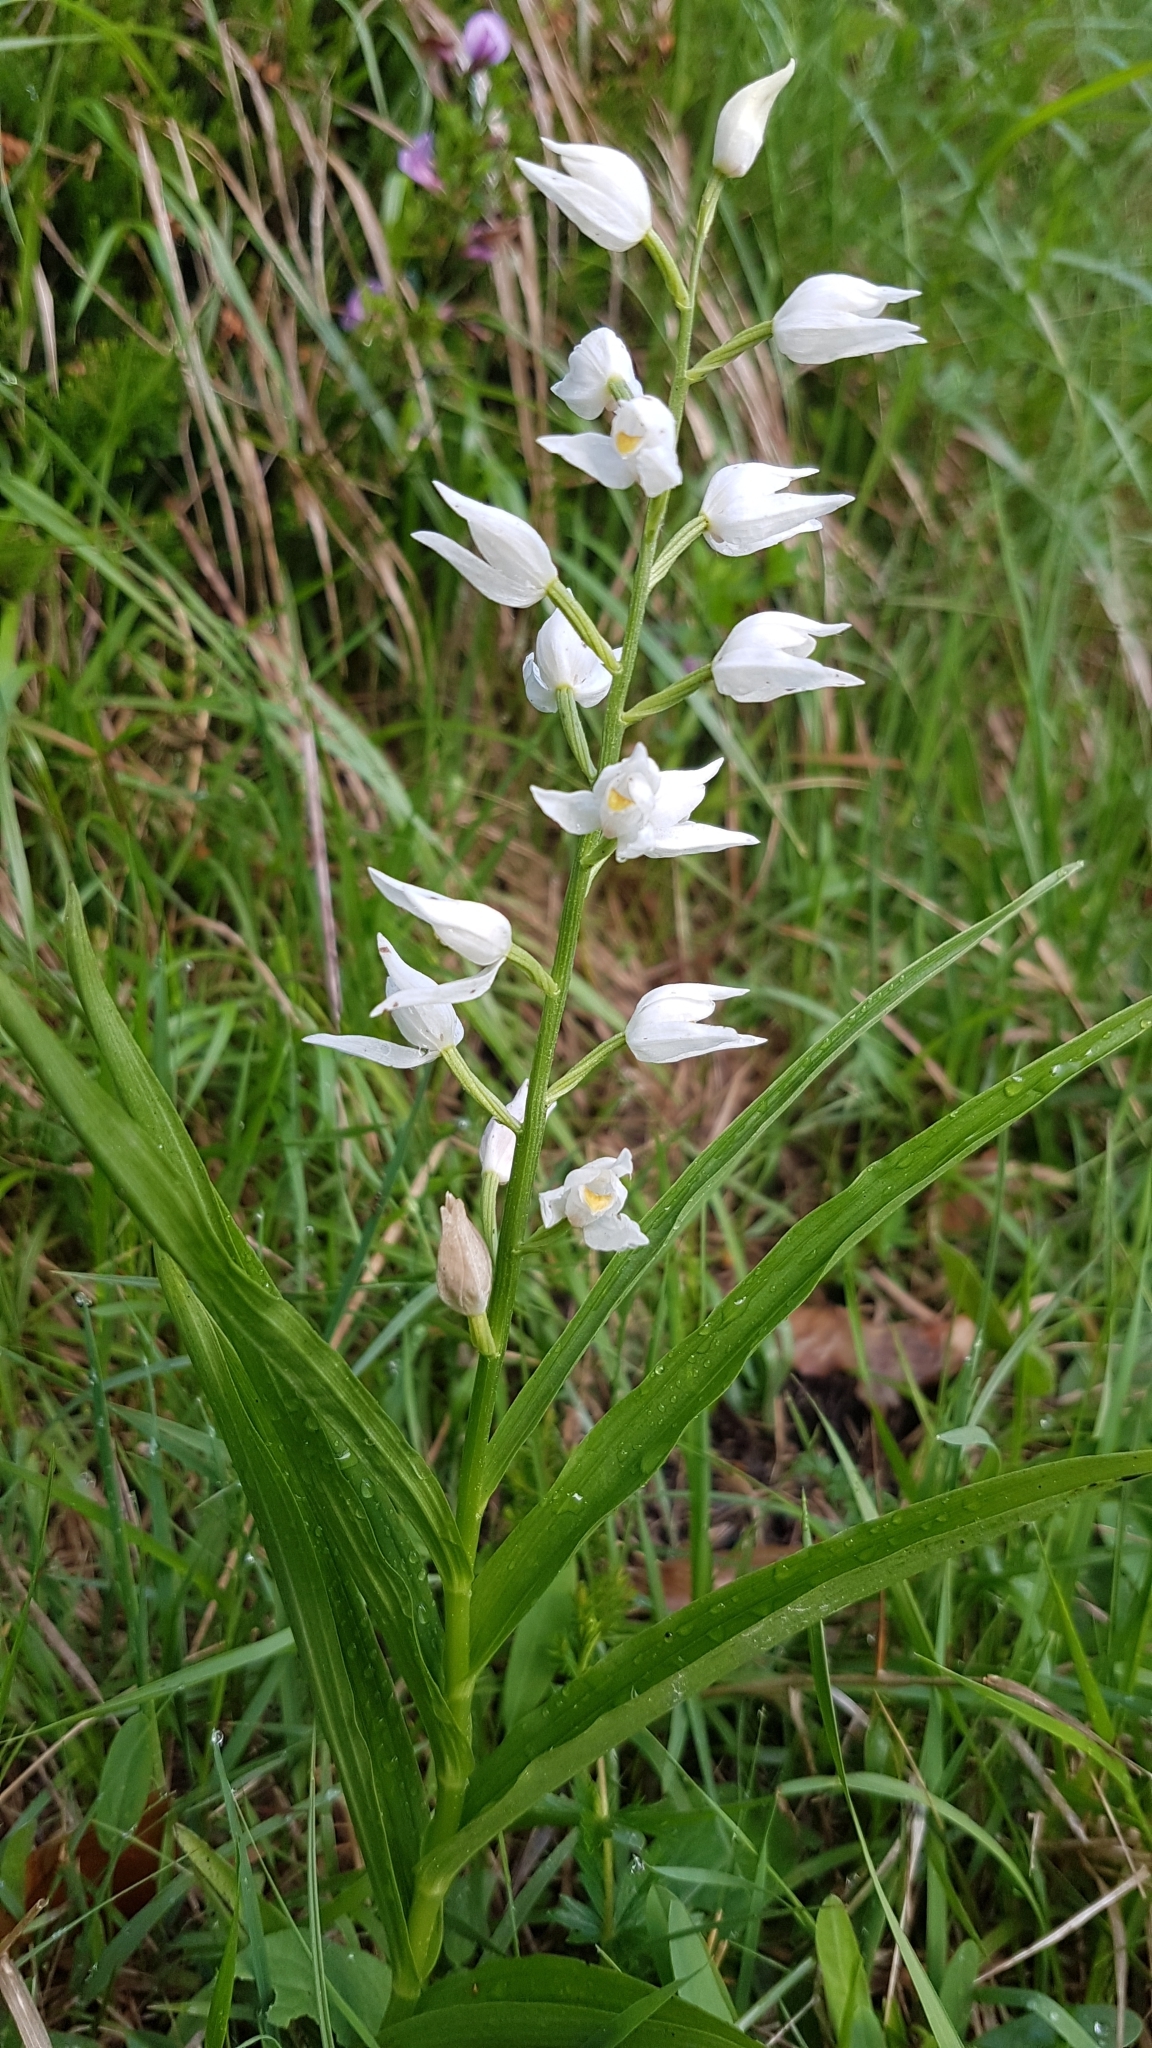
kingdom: Plantae
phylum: Tracheophyta
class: Liliopsida
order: Asparagales
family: Orchidaceae
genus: Cephalanthera
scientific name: Cephalanthera longifolia
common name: Narrow-leaved helleborine
